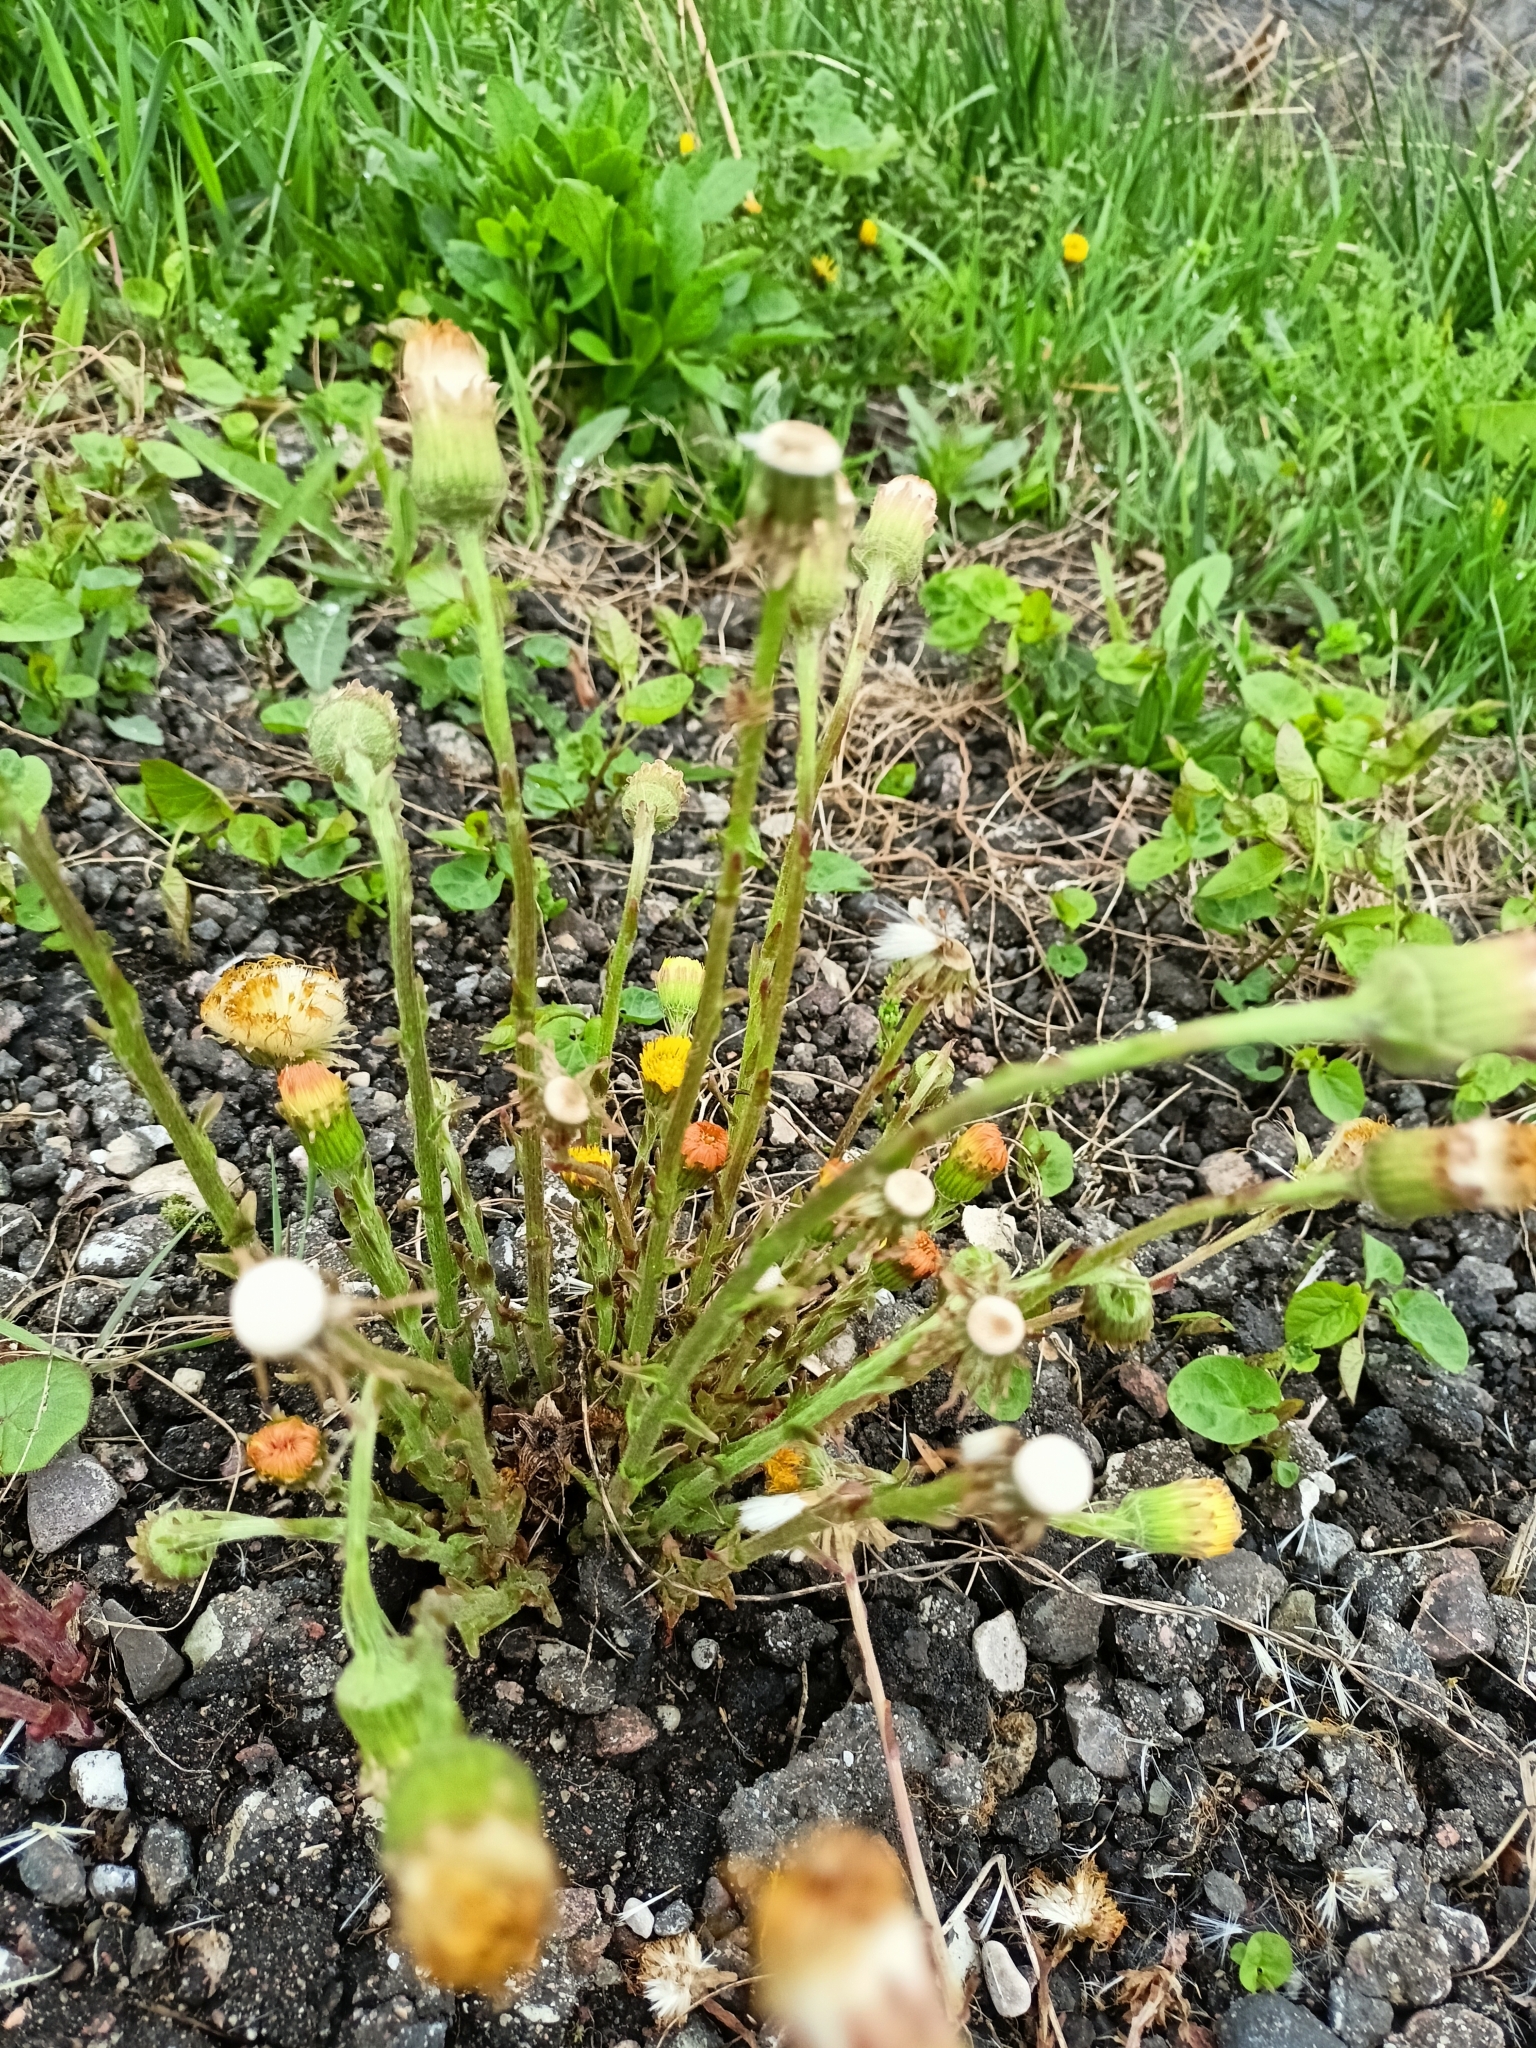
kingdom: Plantae
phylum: Tracheophyta
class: Magnoliopsida
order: Asterales
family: Asteraceae
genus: Tussilago
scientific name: Tussilago farfara
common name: Coltsfoot
